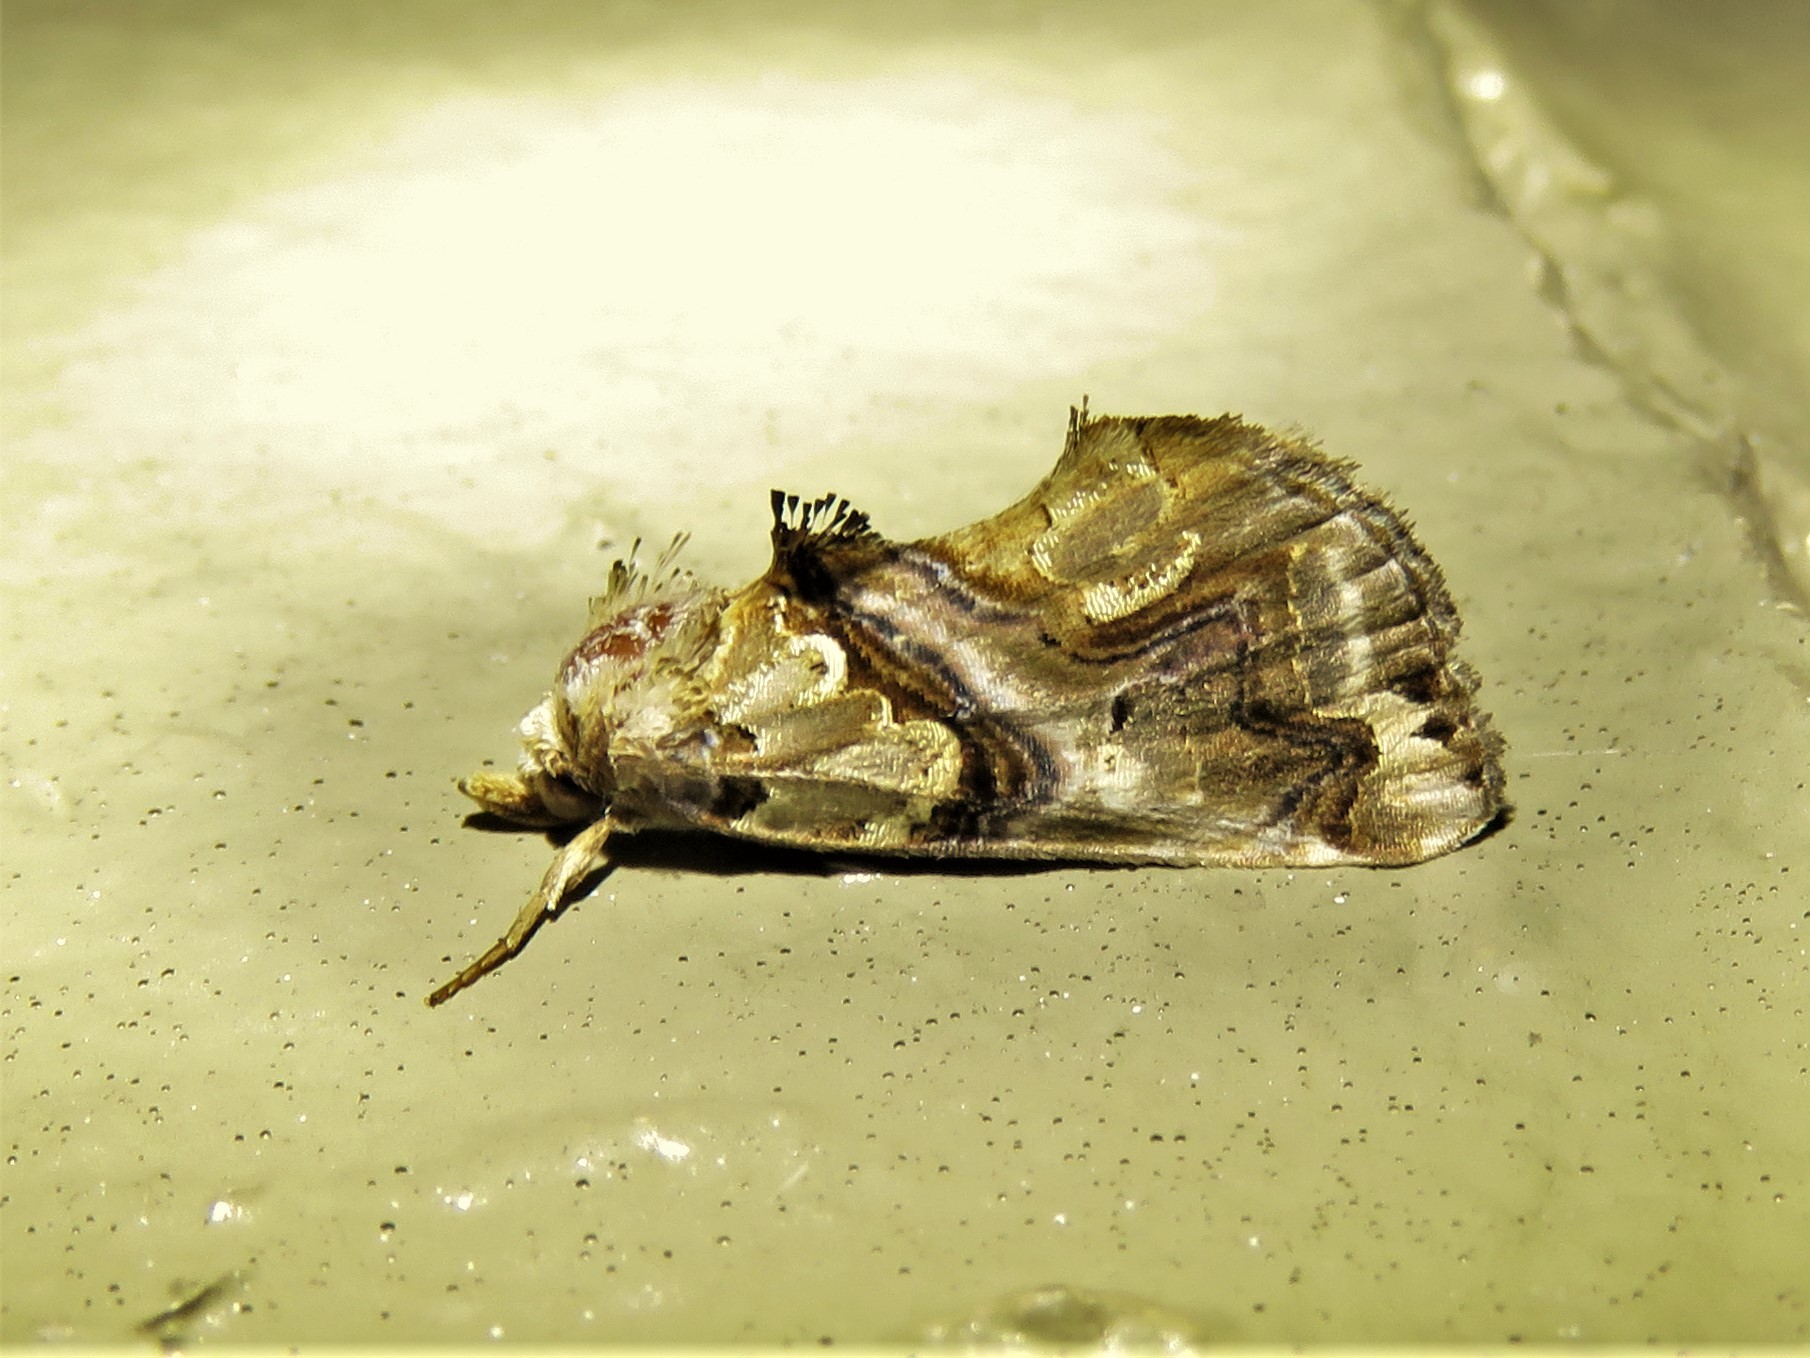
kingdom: Animalia
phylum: Arthropoda
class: Insecta
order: Lepidoptera
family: Erebidae
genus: Plusiodonta
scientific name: Plusiodonta compressipalpis
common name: Moonseed moth
